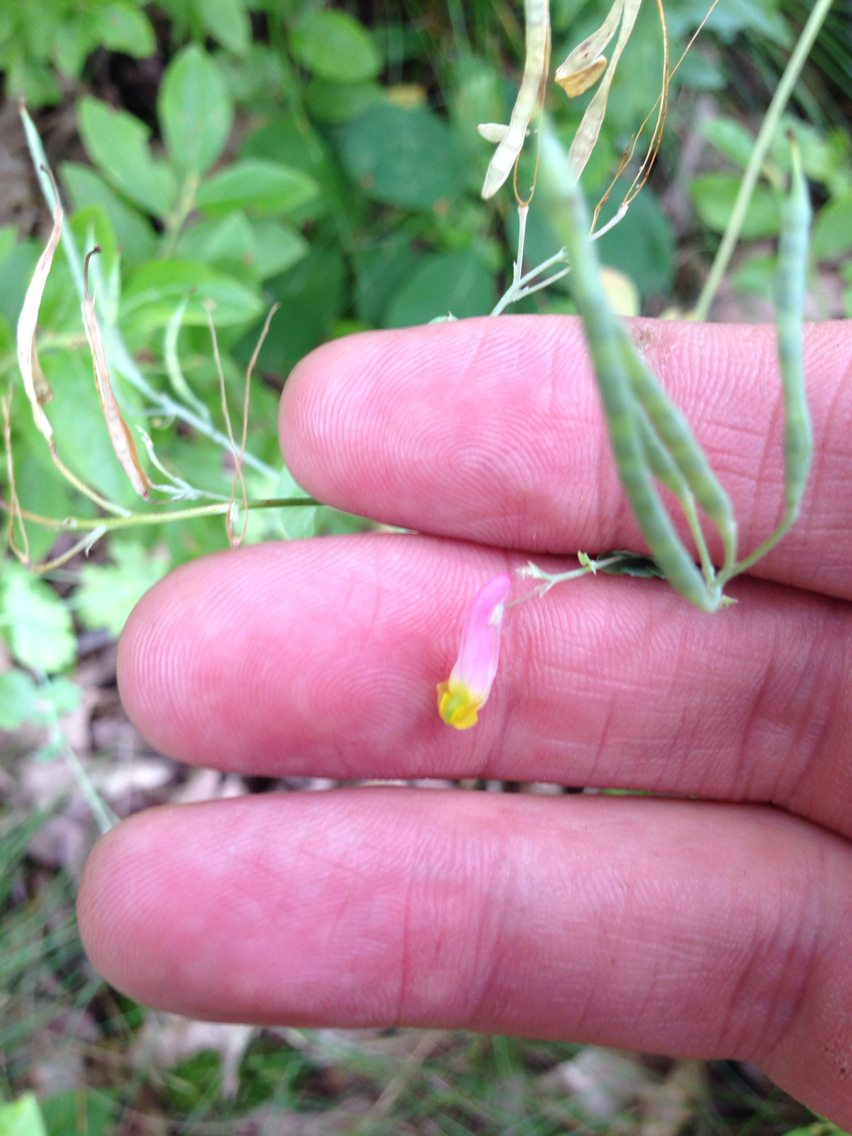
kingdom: Plantae
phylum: Tracheophyta
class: Magnoliopsida
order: Ranunculales
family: Papaveraceae
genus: Capnoides
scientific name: Capnoides sempervirens
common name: Rock harlequin
